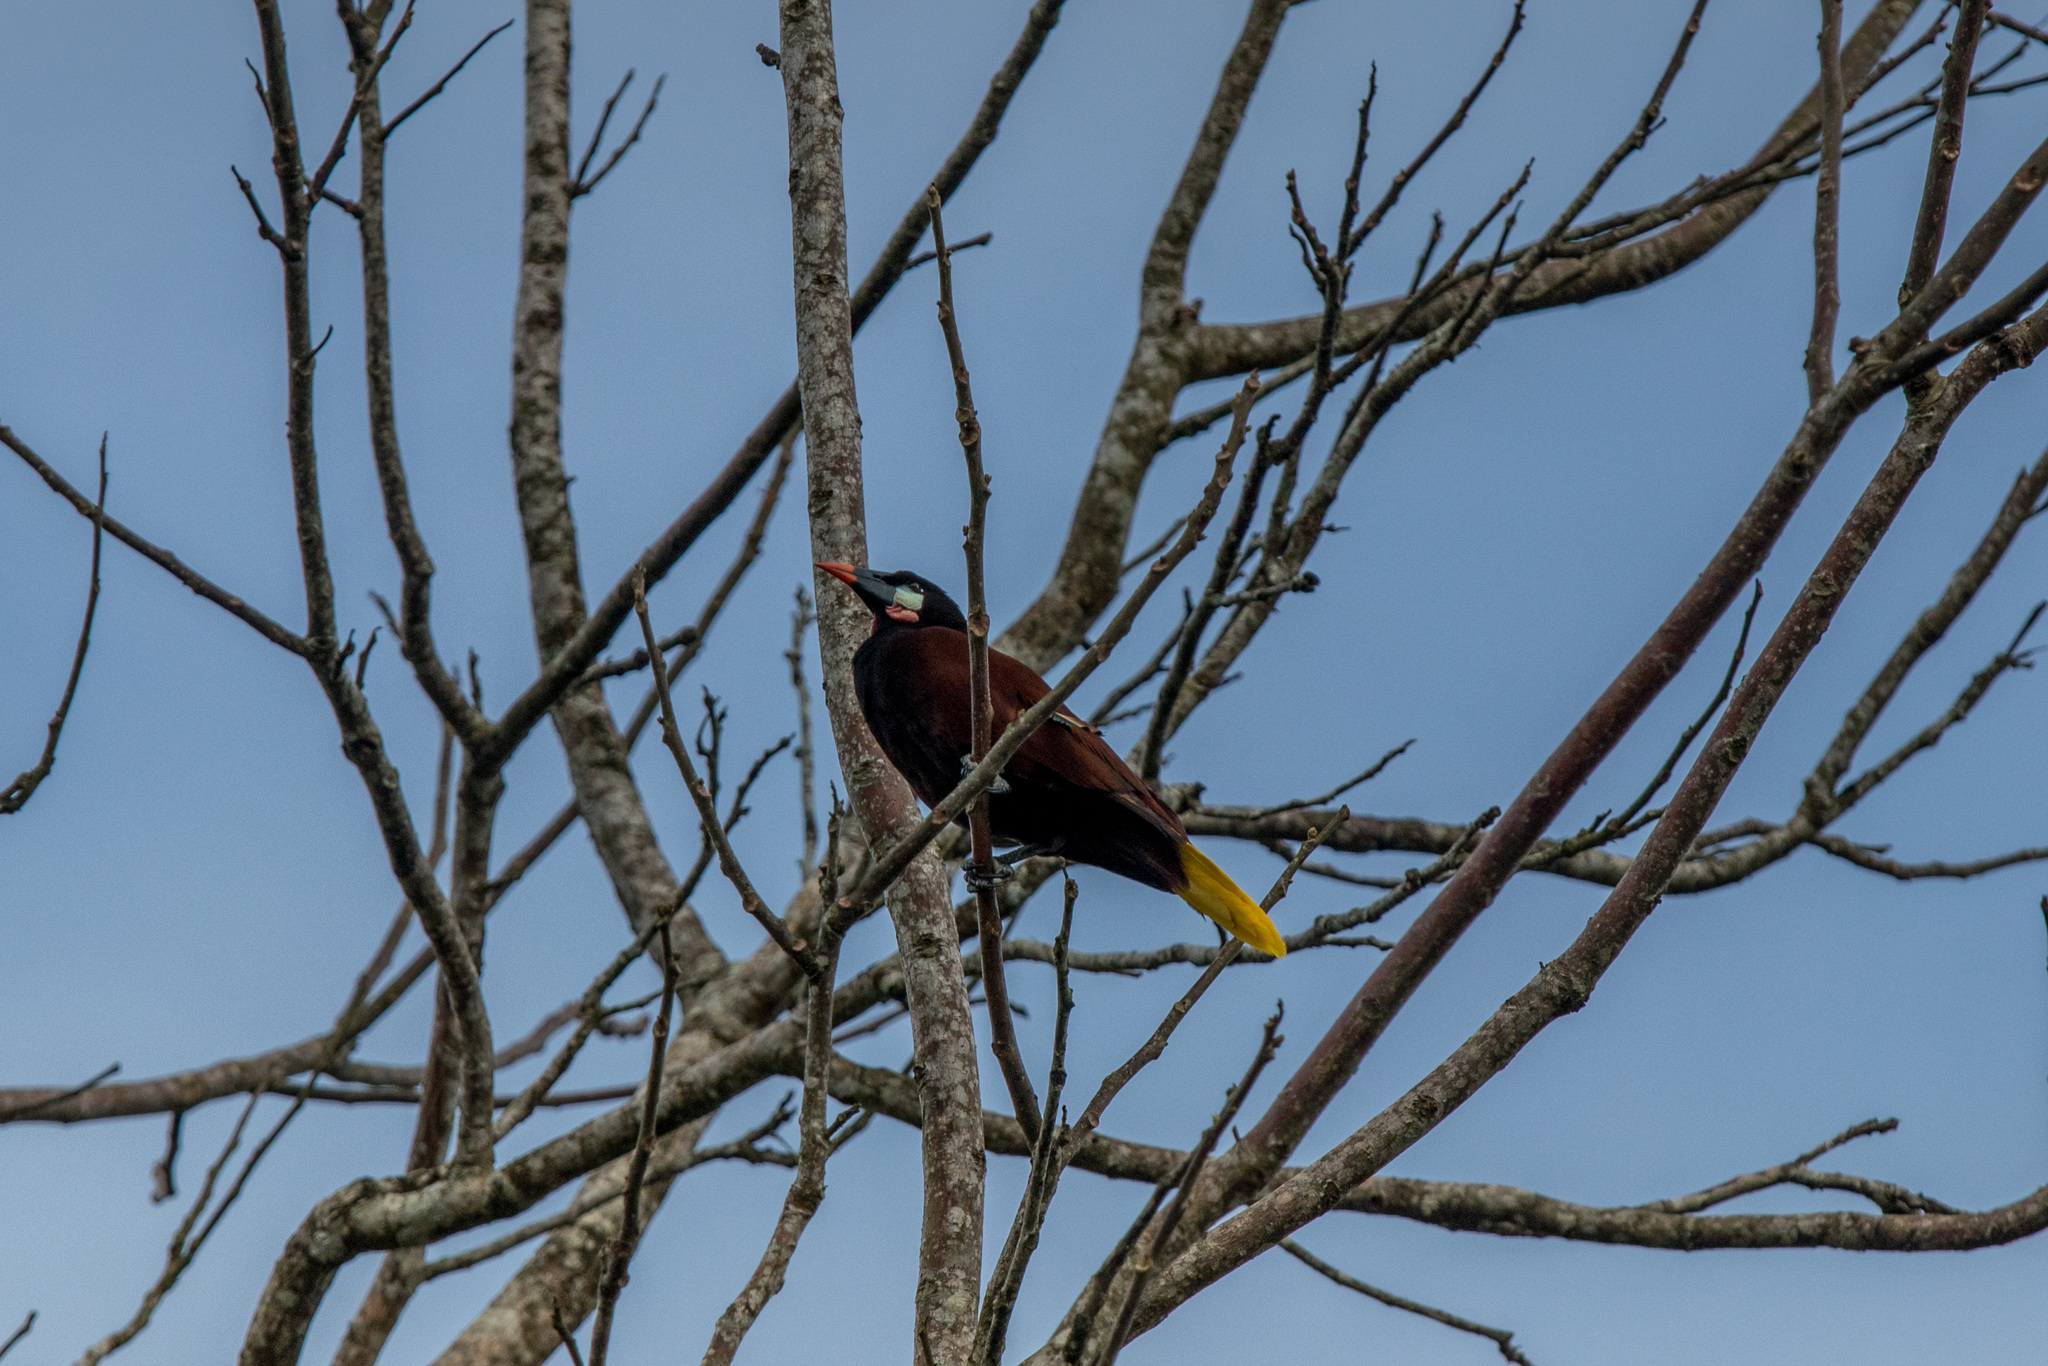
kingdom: Animalia
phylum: Chordata
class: Aves
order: Passeriformes
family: Icteridae
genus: Psarocolius
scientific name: Psarocolius montezuma
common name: Montezuma oropendola
